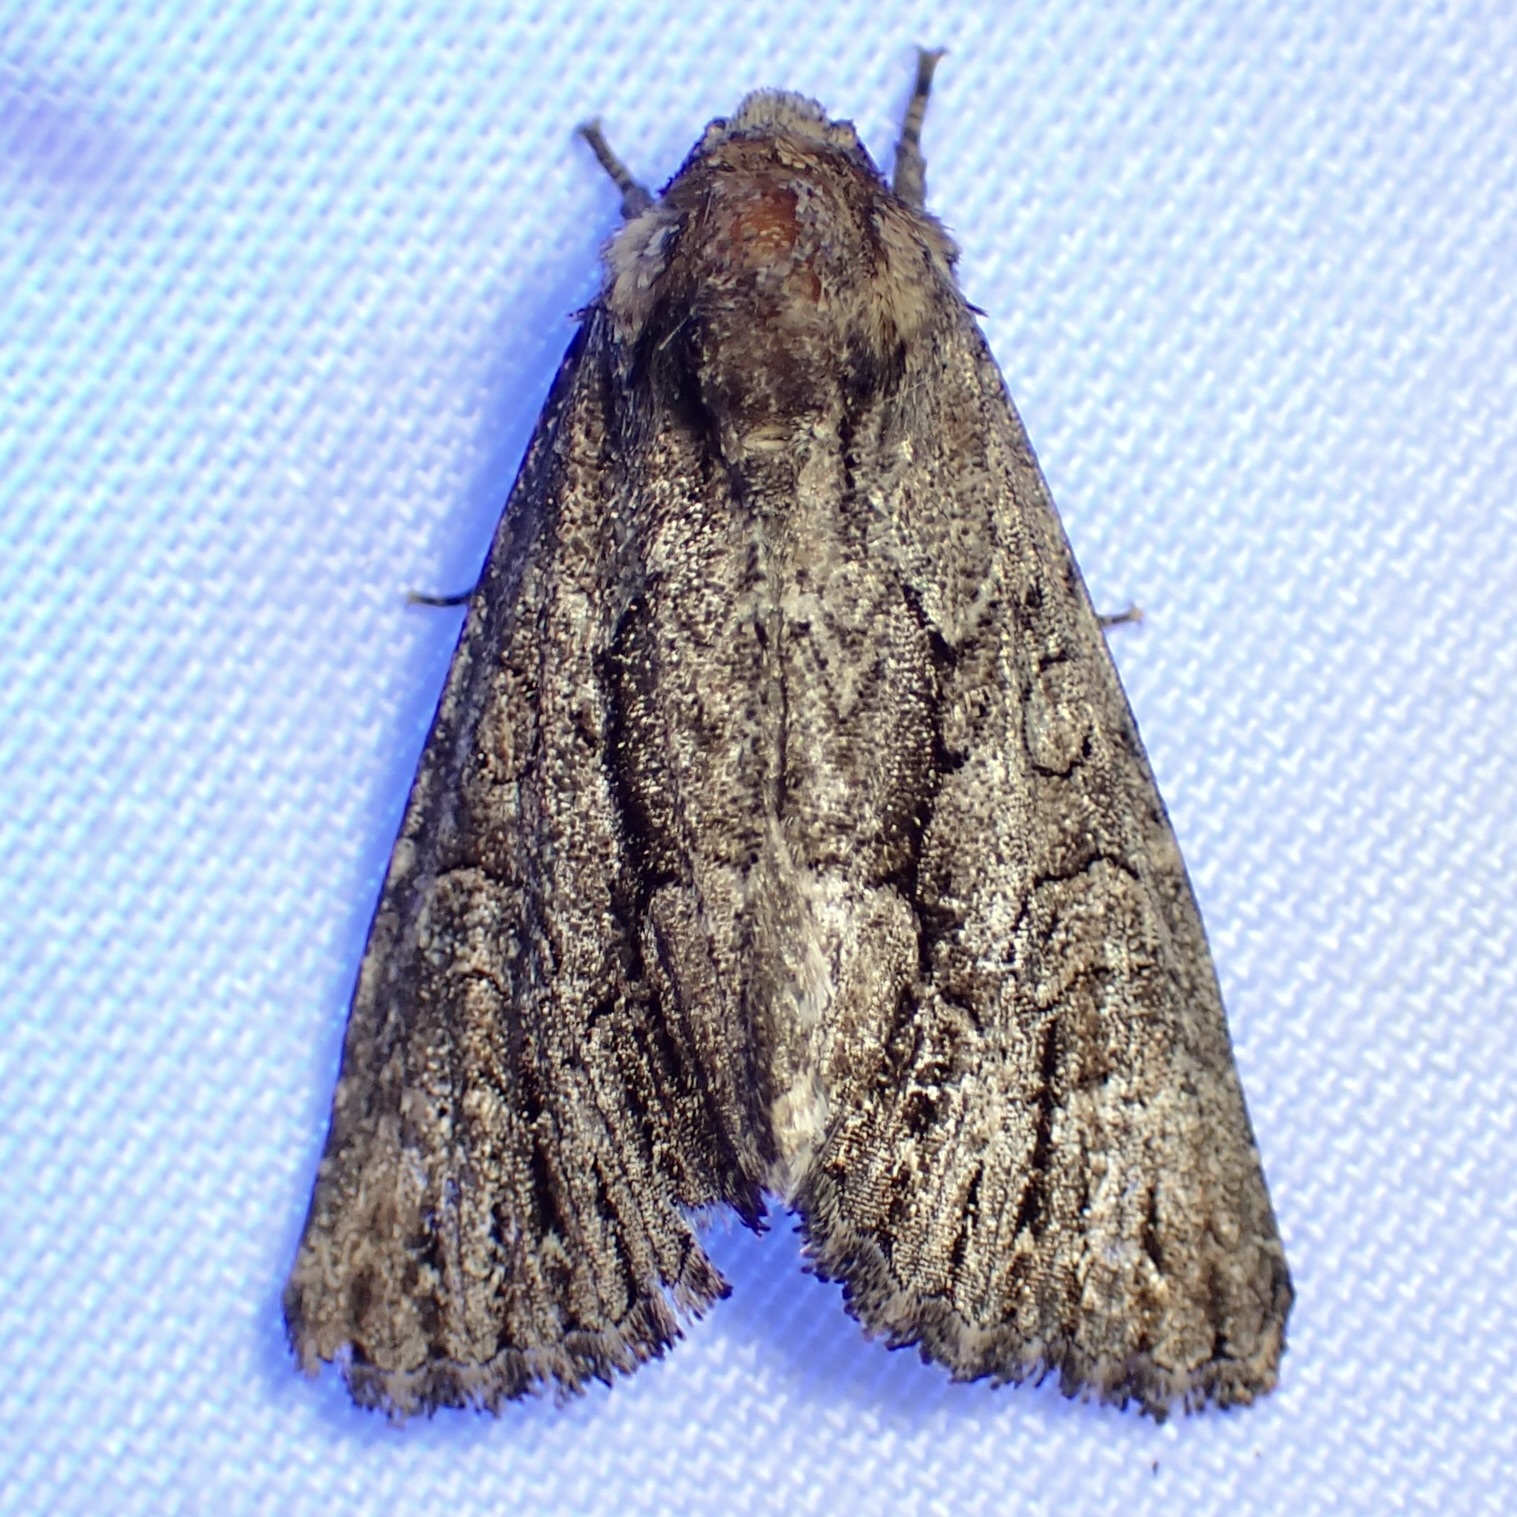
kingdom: Animalia
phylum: Arthropoda
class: Insecta
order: Lepidoptera
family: Noctuidae
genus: Ruacodes
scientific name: Ruacodes tela
